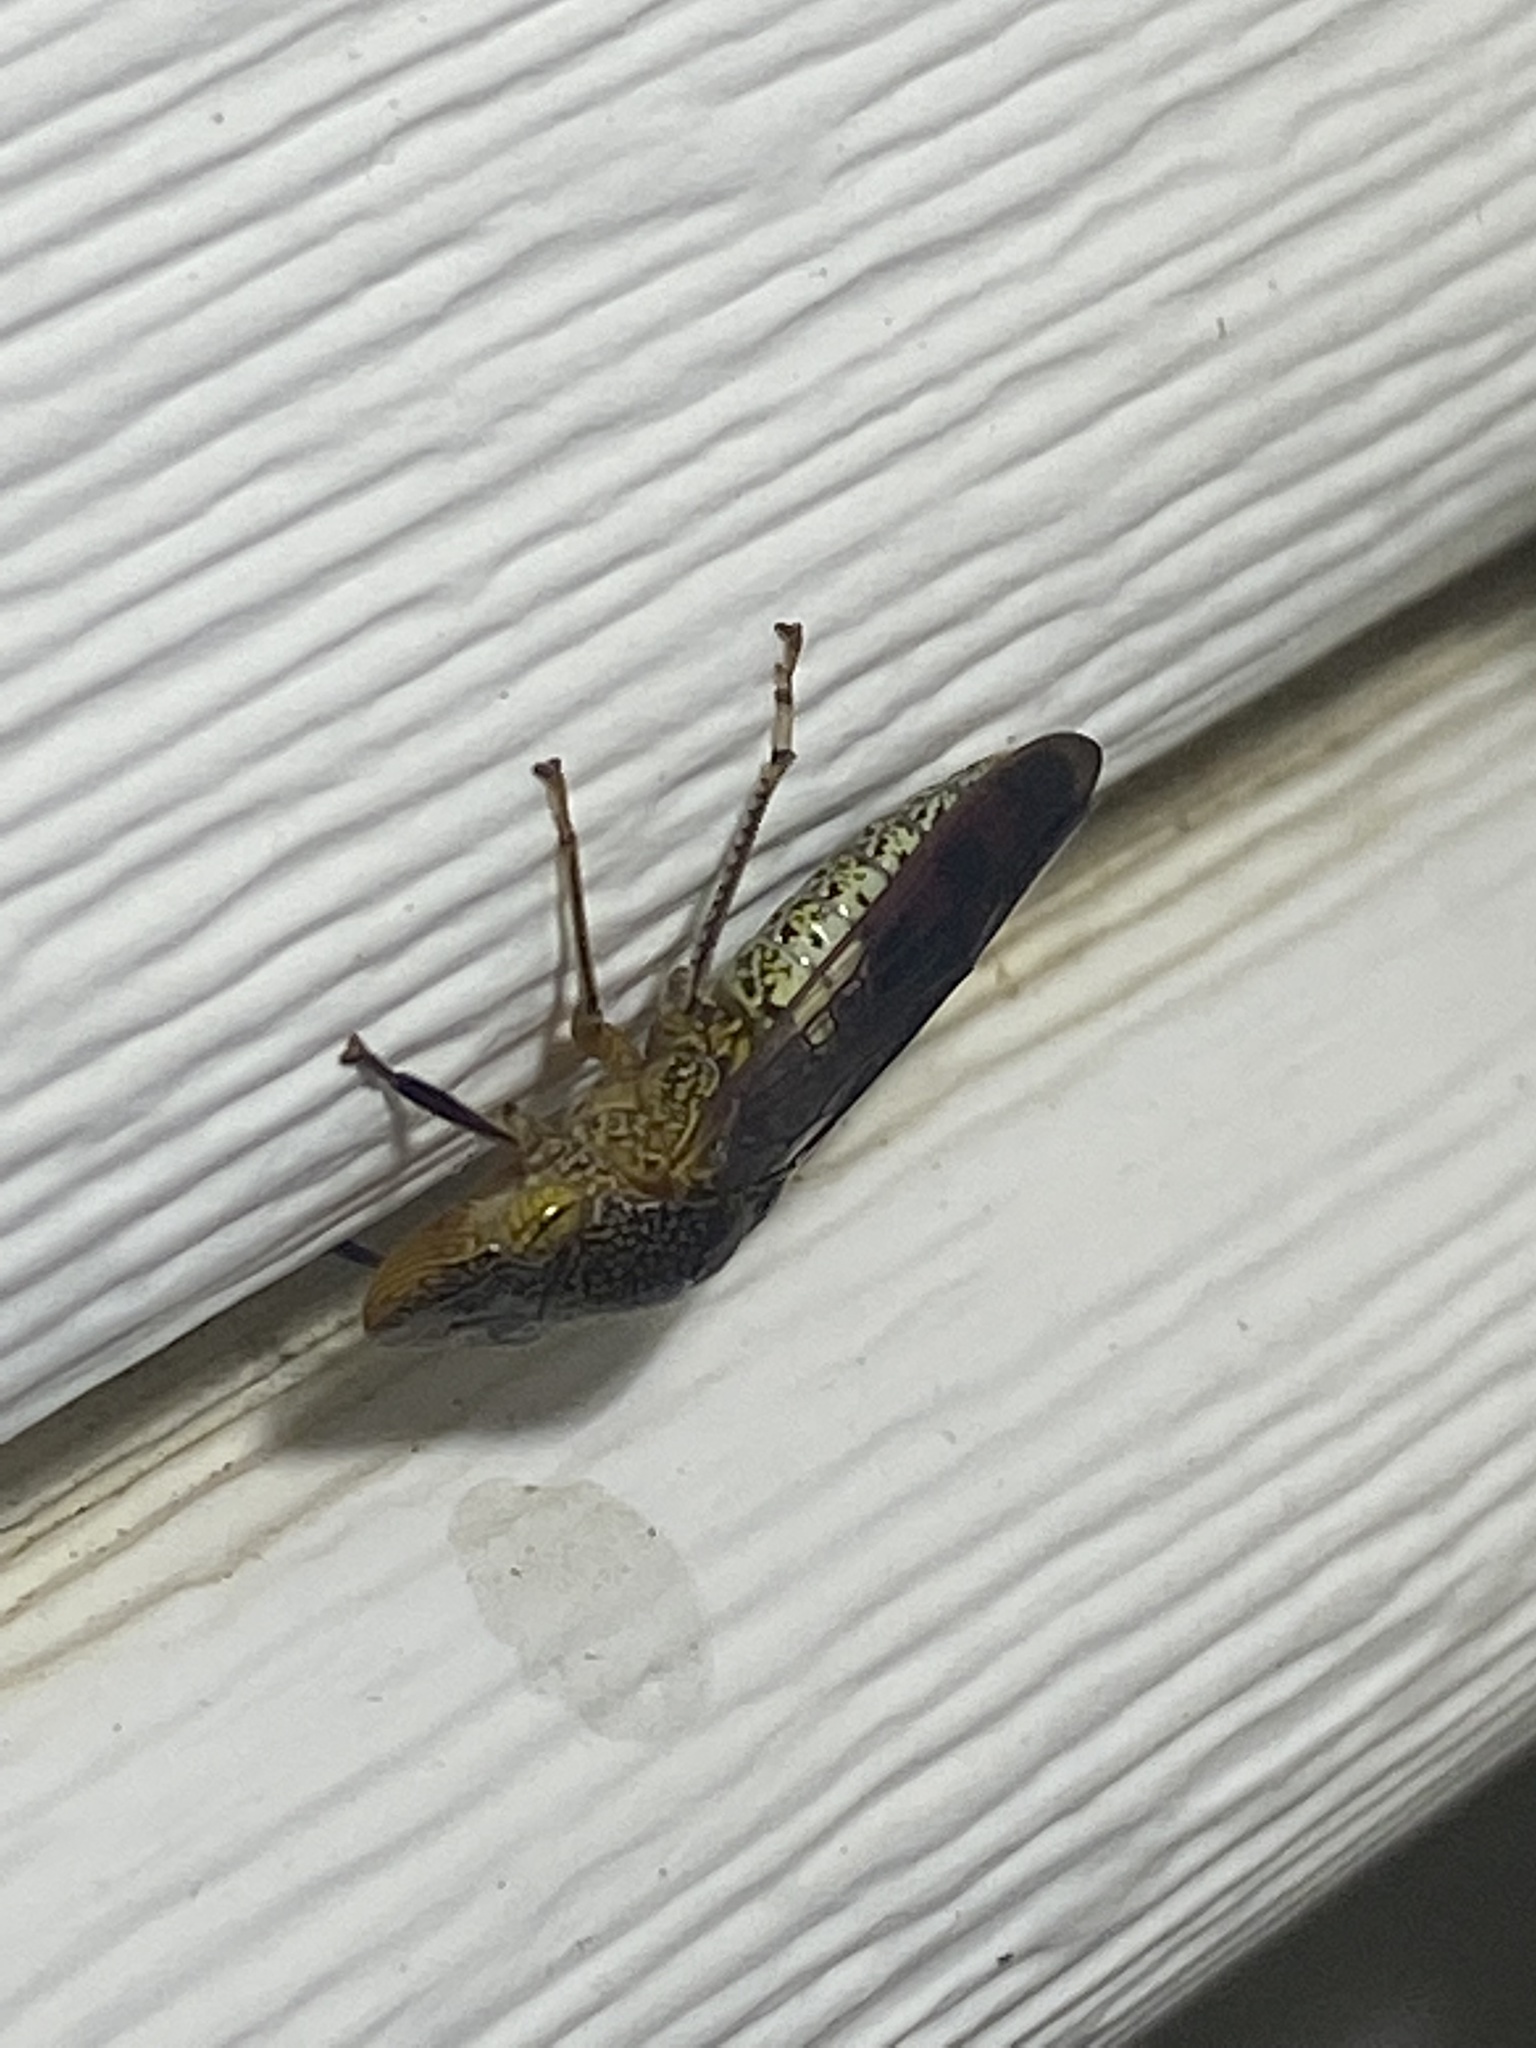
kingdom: Animalia
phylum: Arthropoda
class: Insecta
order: Hemiptera
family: Cicadellidae
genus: Homalodisca
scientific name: Homalodisca vitripennis
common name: Glassy-winged sharpshooter
